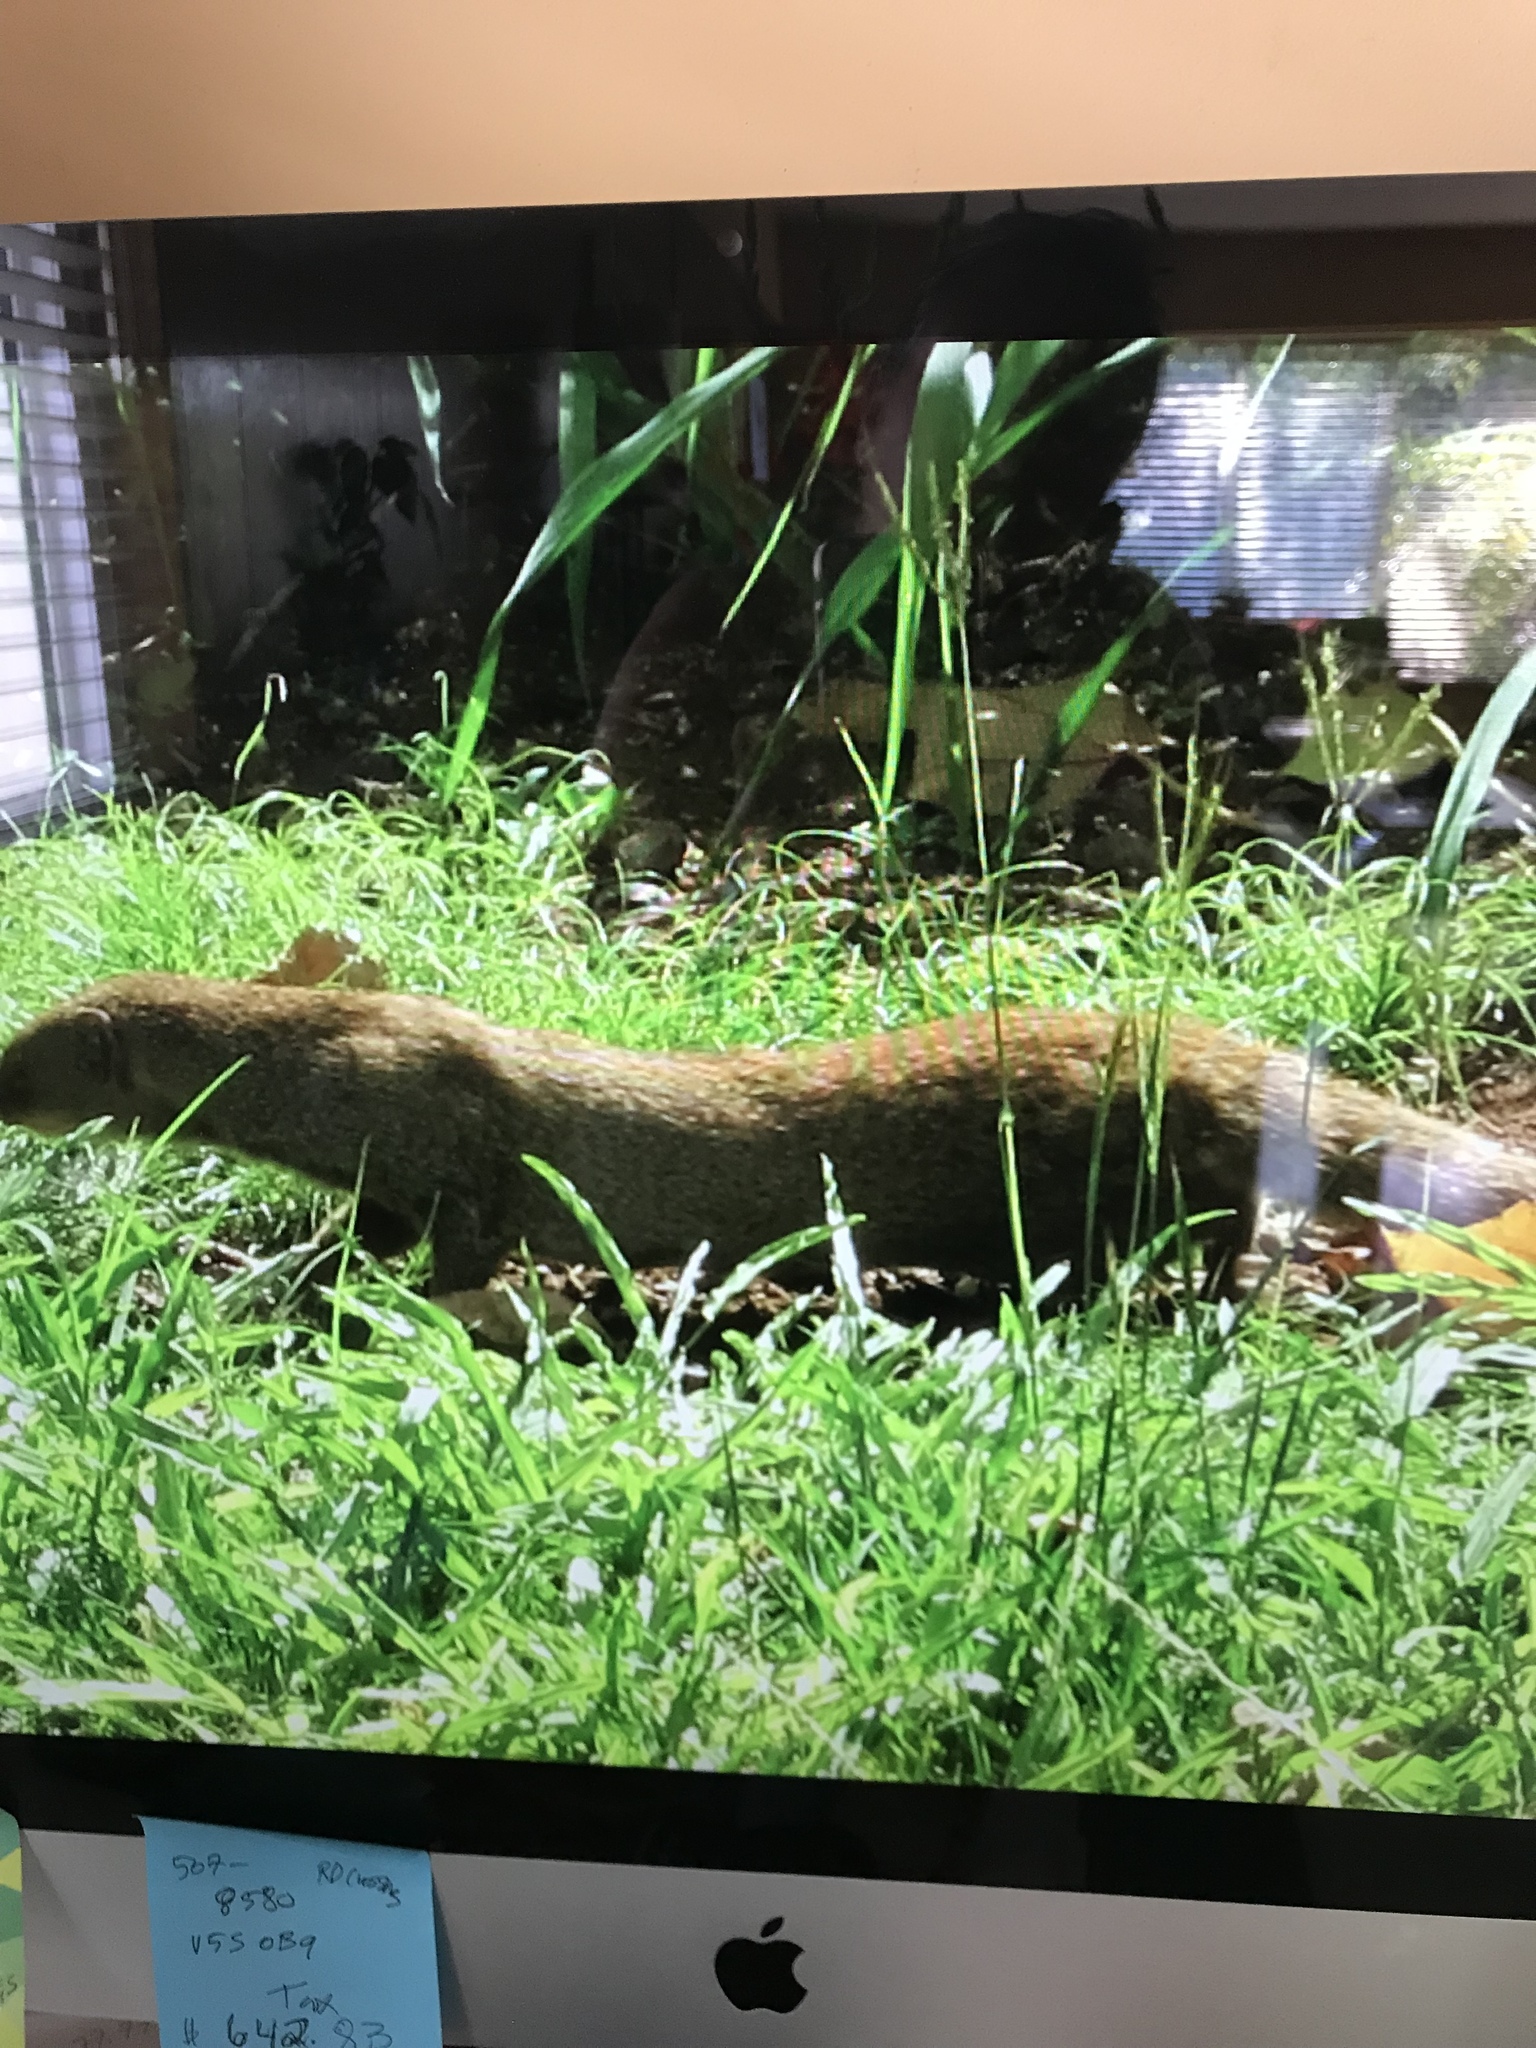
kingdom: Animalia
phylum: Chordata
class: Mammalia
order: Carnivora
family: Herpestidae
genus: Herpestes
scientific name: Herpestes javanicus
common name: Small asian mongoose
